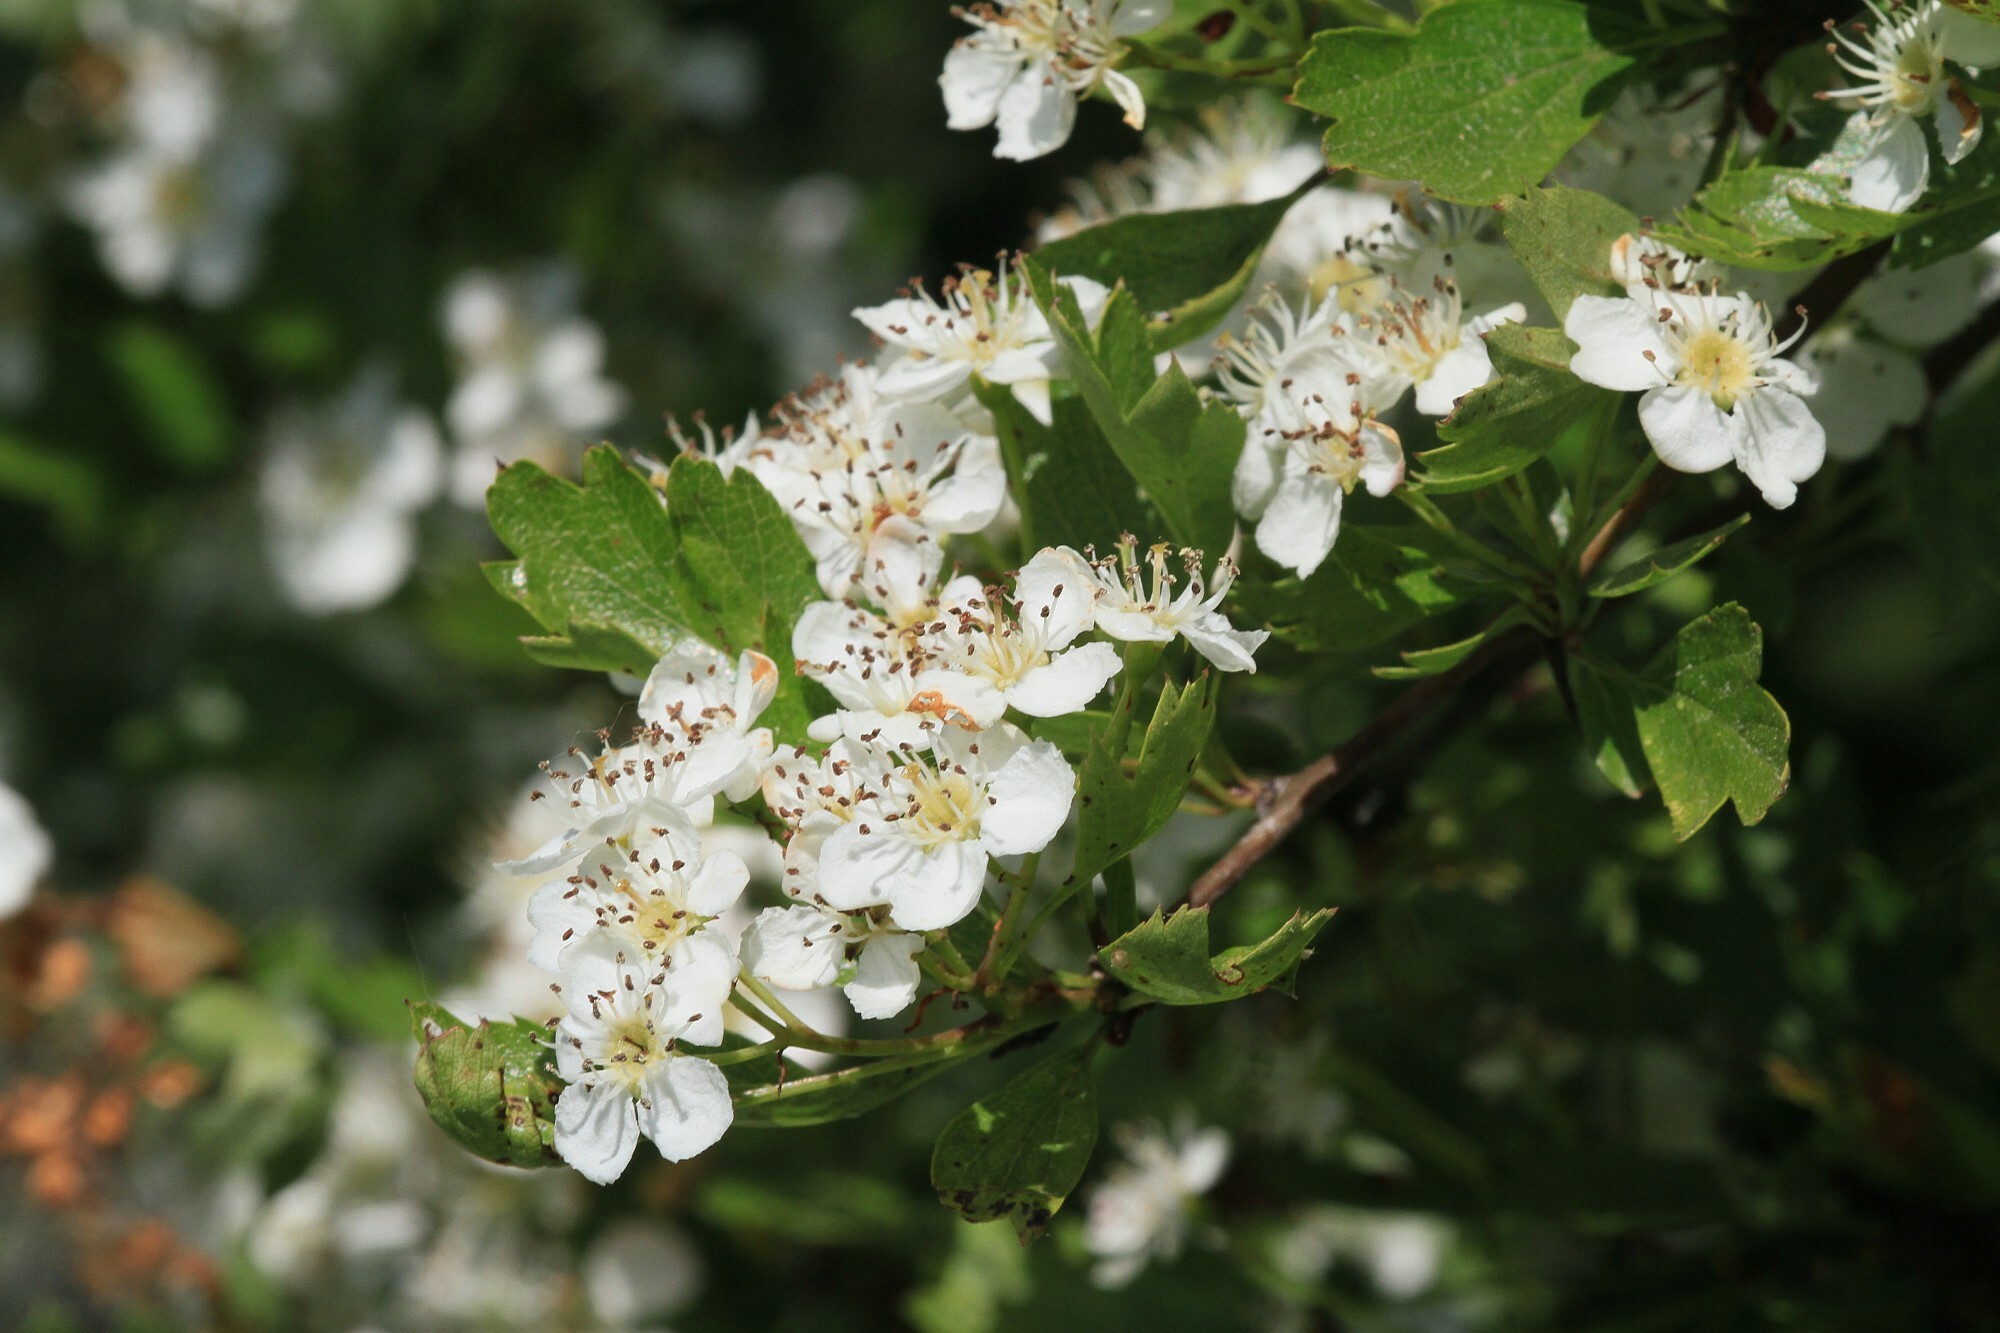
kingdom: Plantae
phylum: Tracheophyta
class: Magnoliopsida
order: Rosales
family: Rosaceae
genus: Crataegus
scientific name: Crataegus monogyna
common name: Hawthorn
